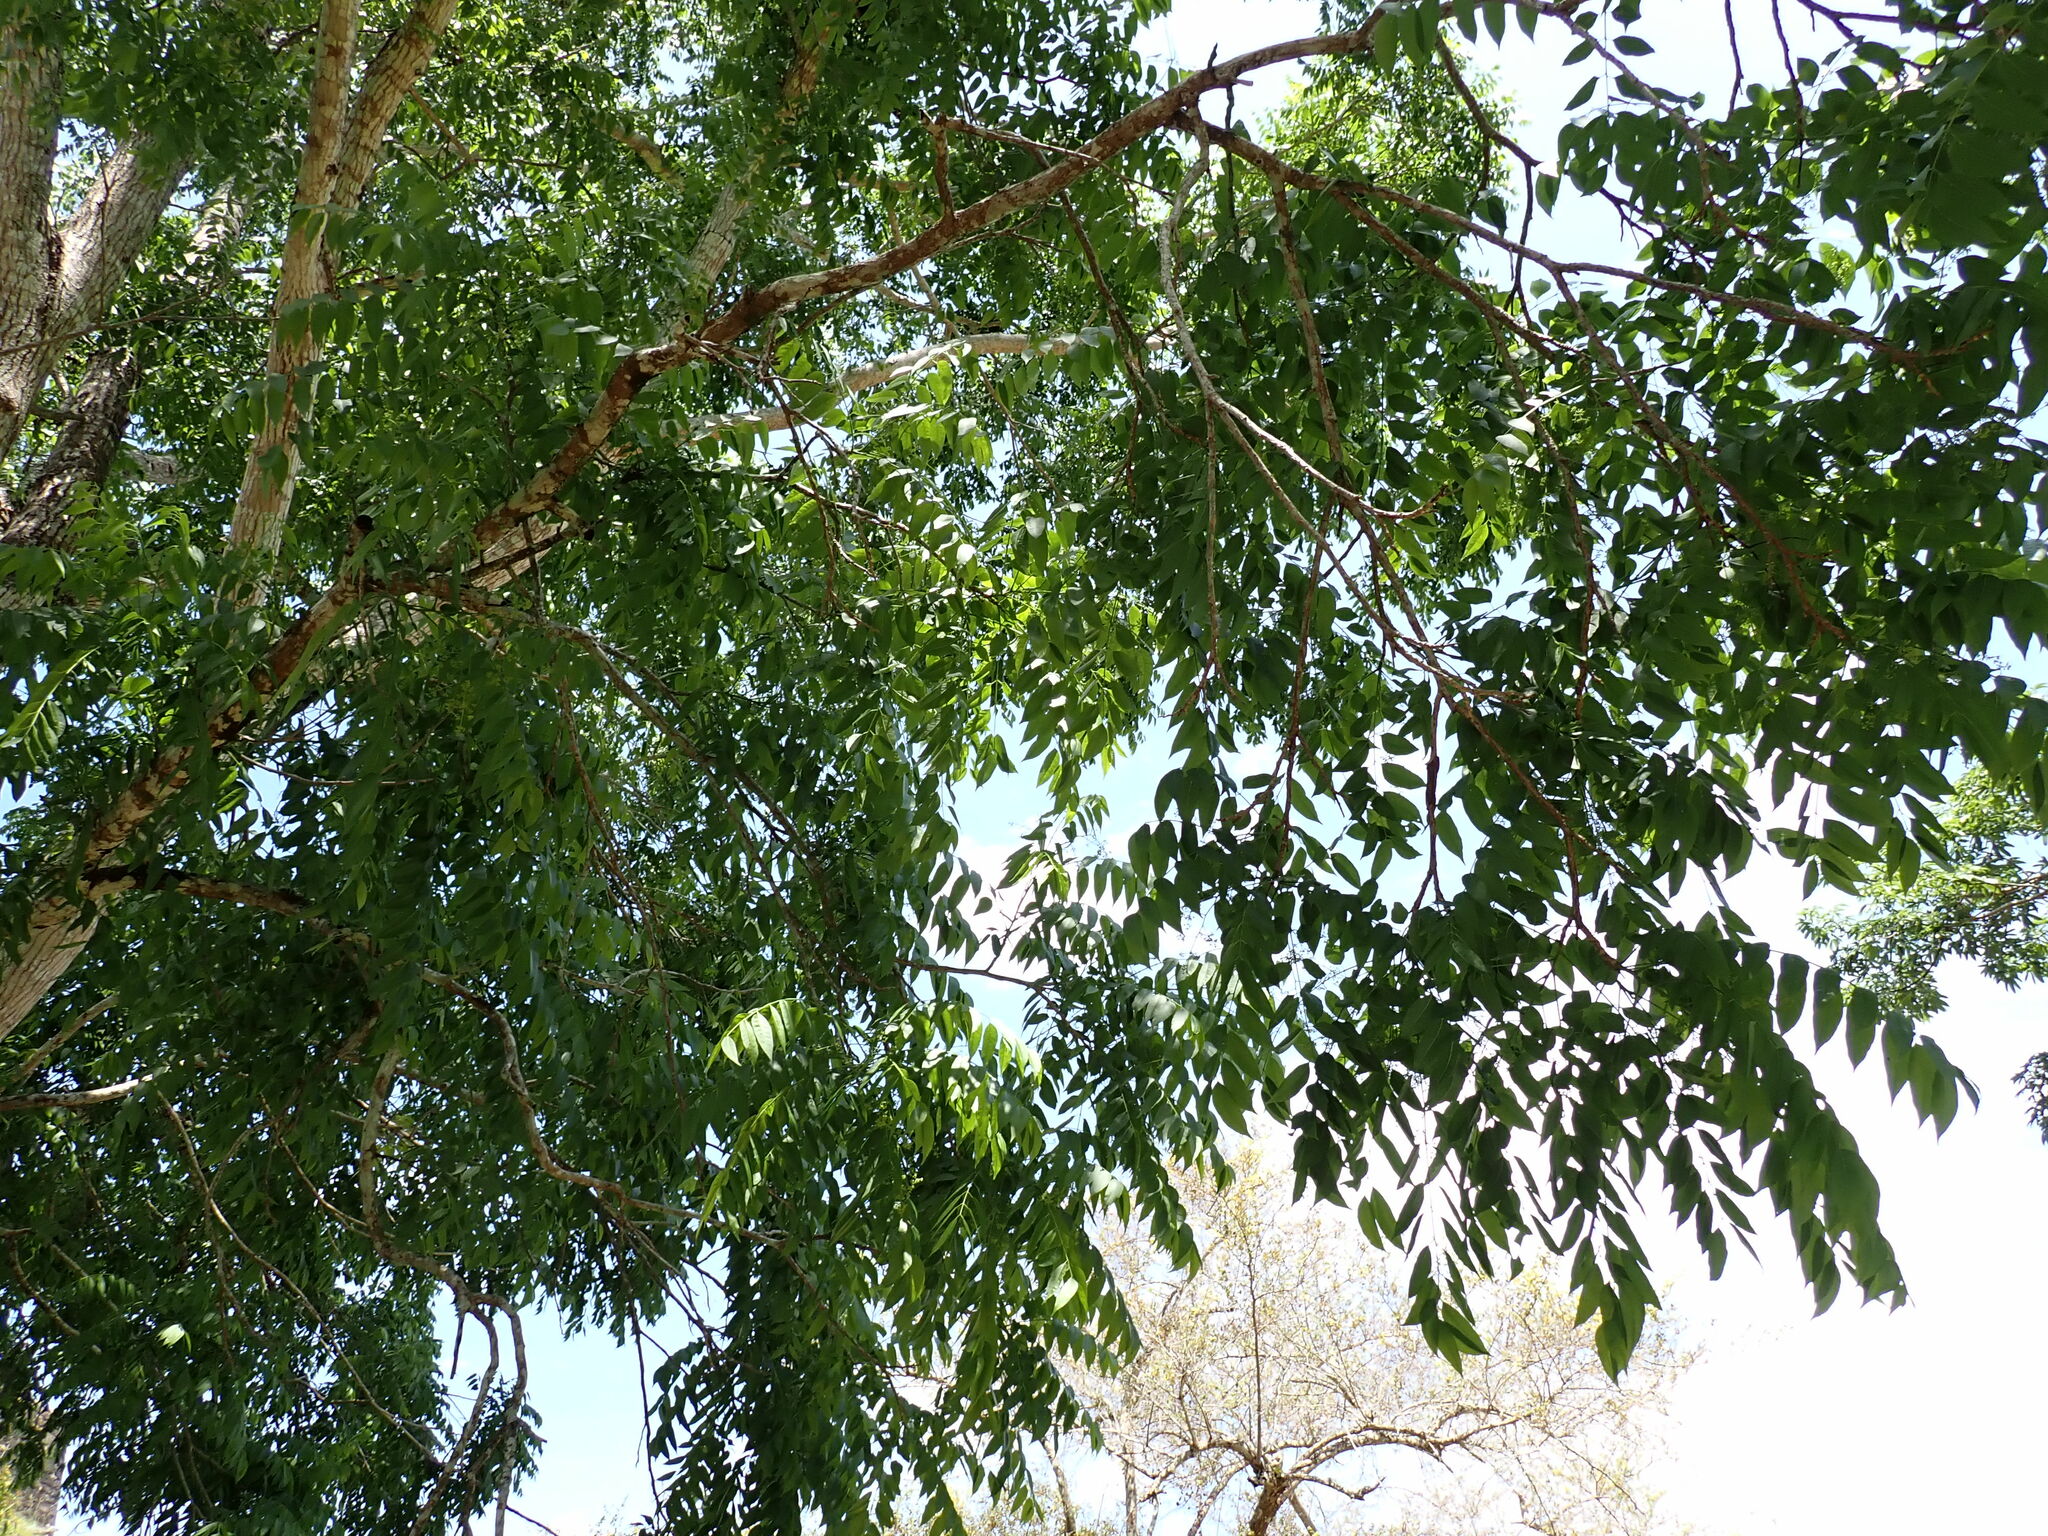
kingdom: Plantae
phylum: Tracheophyta
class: Magnoliopsida
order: Sapindales
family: Meliaceae
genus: Cedrela
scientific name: Cedrela odorata
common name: Red cedar
